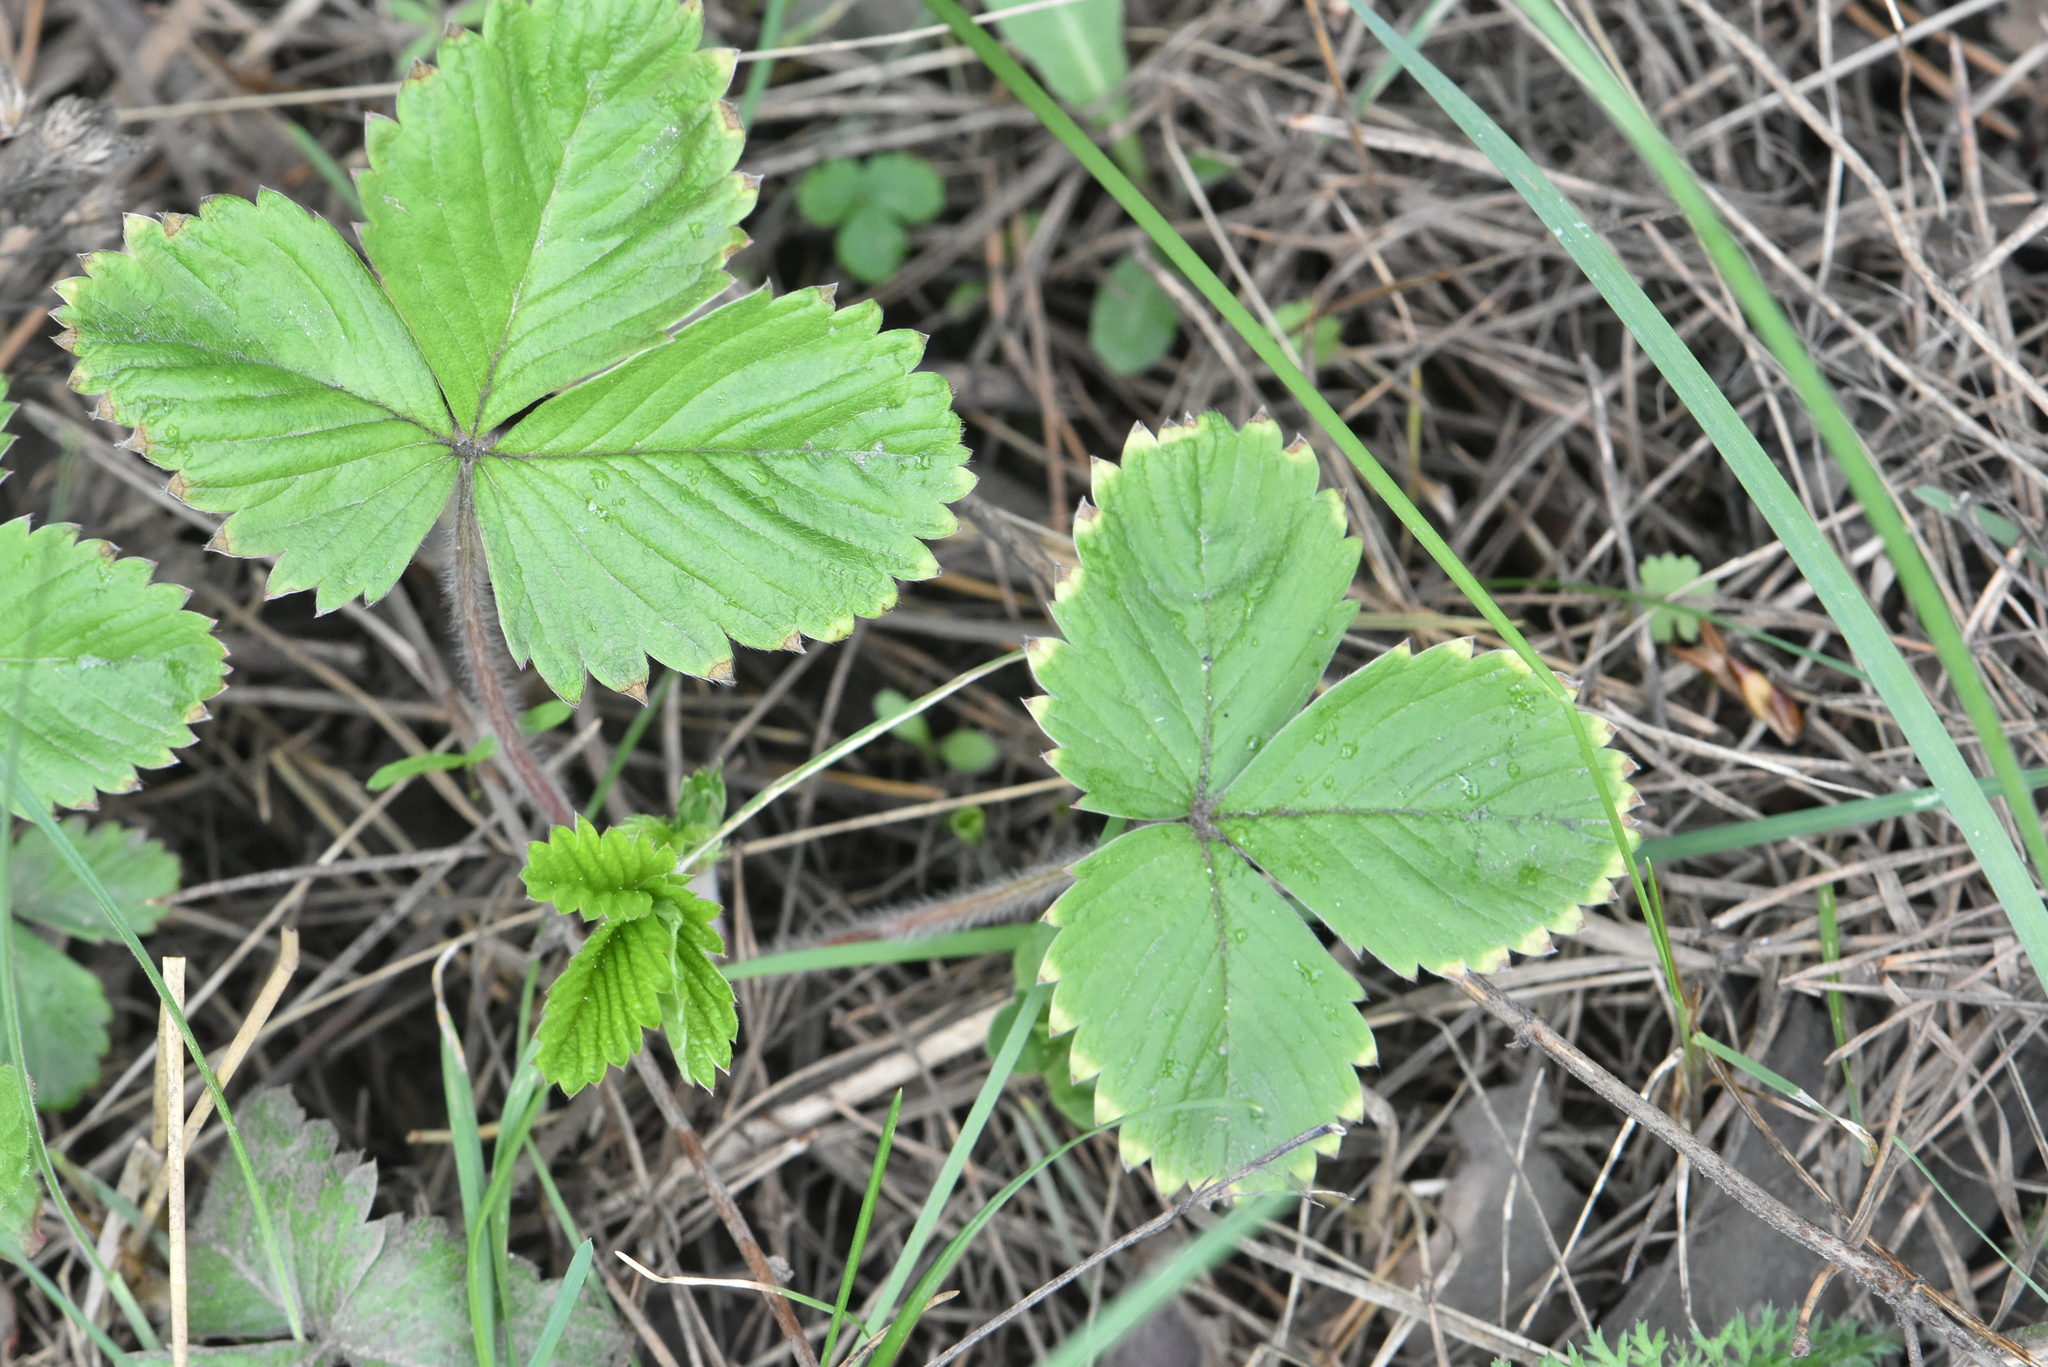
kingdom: Plantae
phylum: Tracheophyta
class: Magnoliopsida
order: Rosales
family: Rosaceae
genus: Fragaria
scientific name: Fragaria vesca
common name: Wild strawberry
